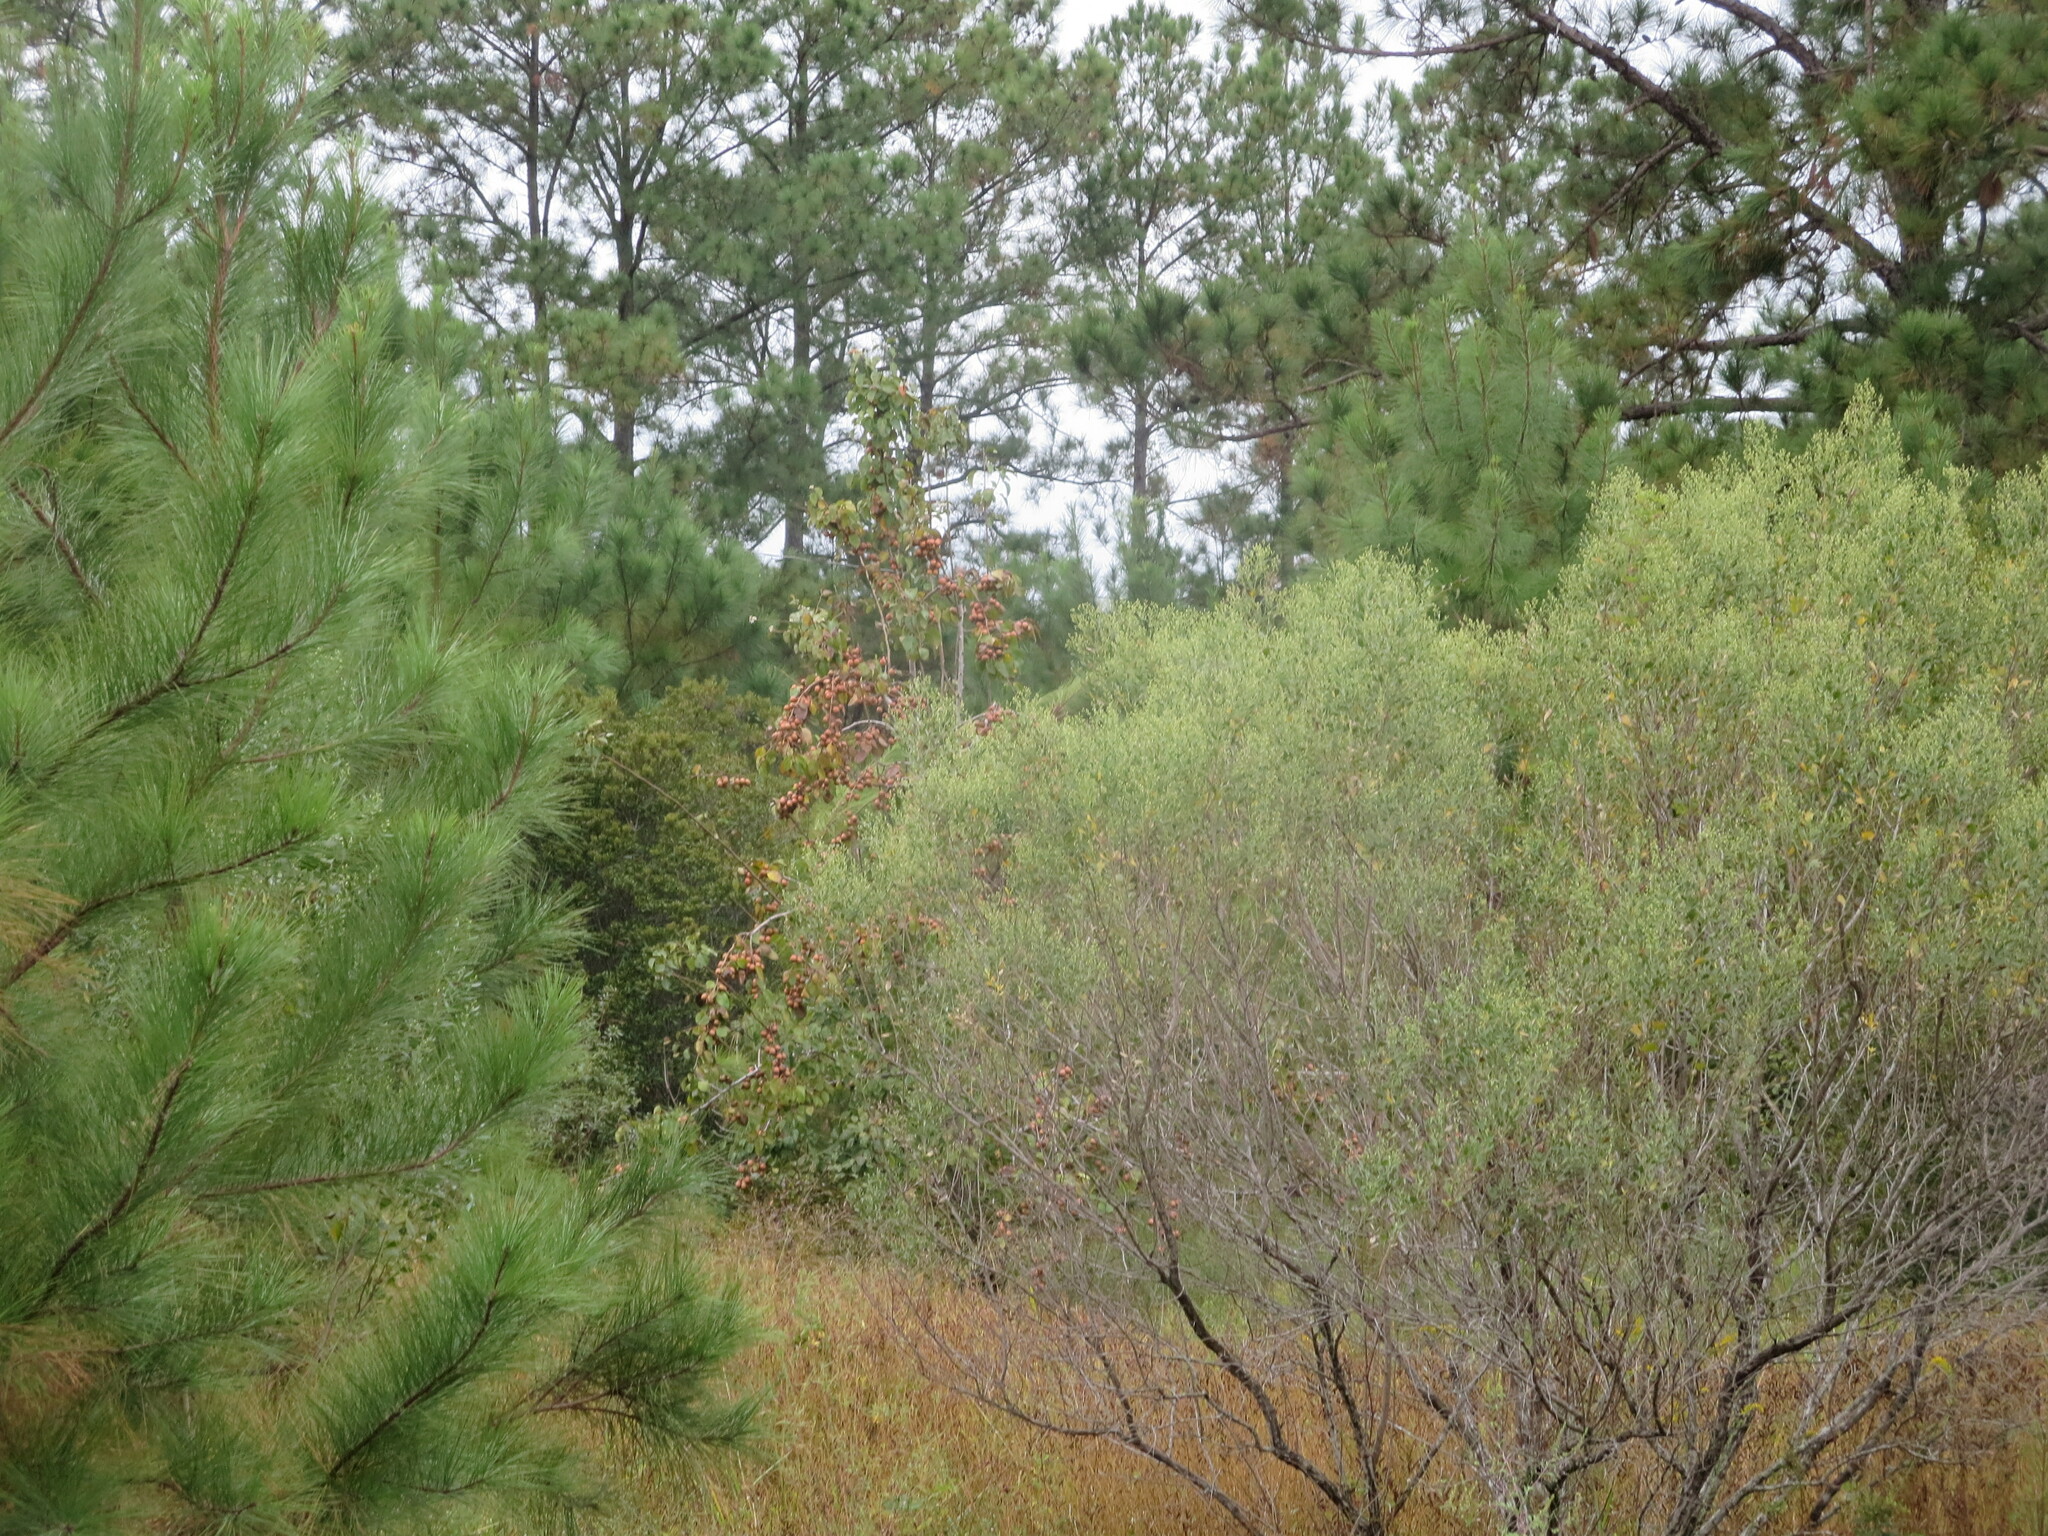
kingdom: Plantae
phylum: Tracheophyta
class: Magnoliopsida
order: Rosales
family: Rosaceae
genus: Pyrus
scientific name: Pyrus calleryana
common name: Callery pear
